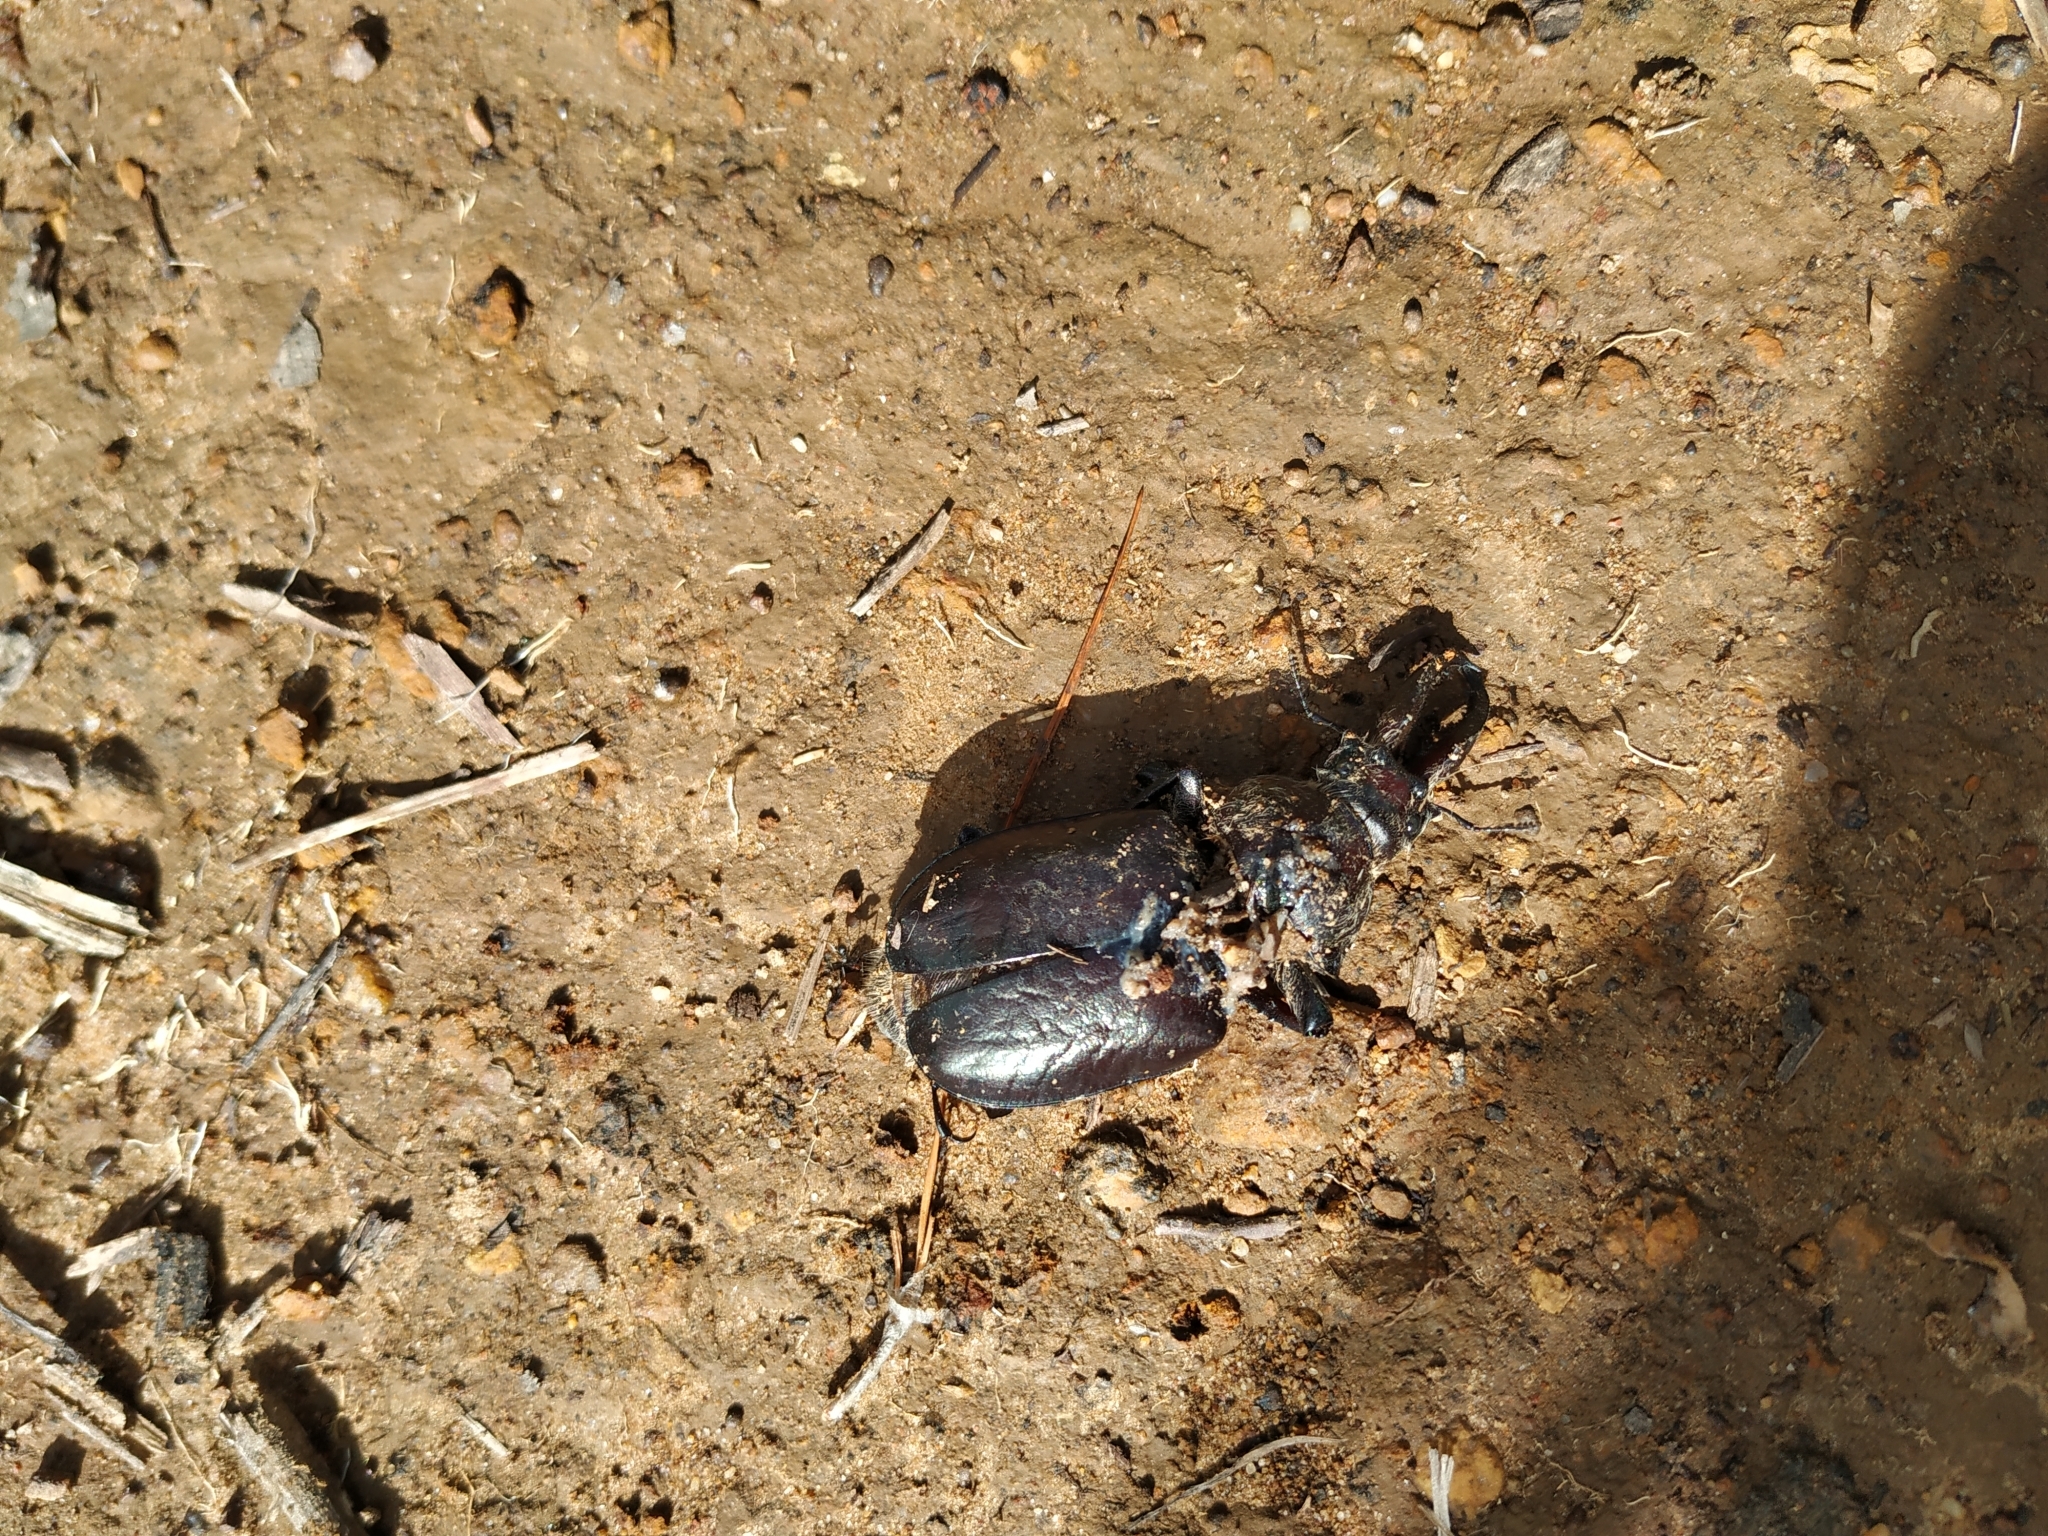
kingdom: Animalia
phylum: Arthropoda
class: Insecta
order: Coleoptera
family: Lucanidae
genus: Sphaenognathus
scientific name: Sphaenognathus armatus
